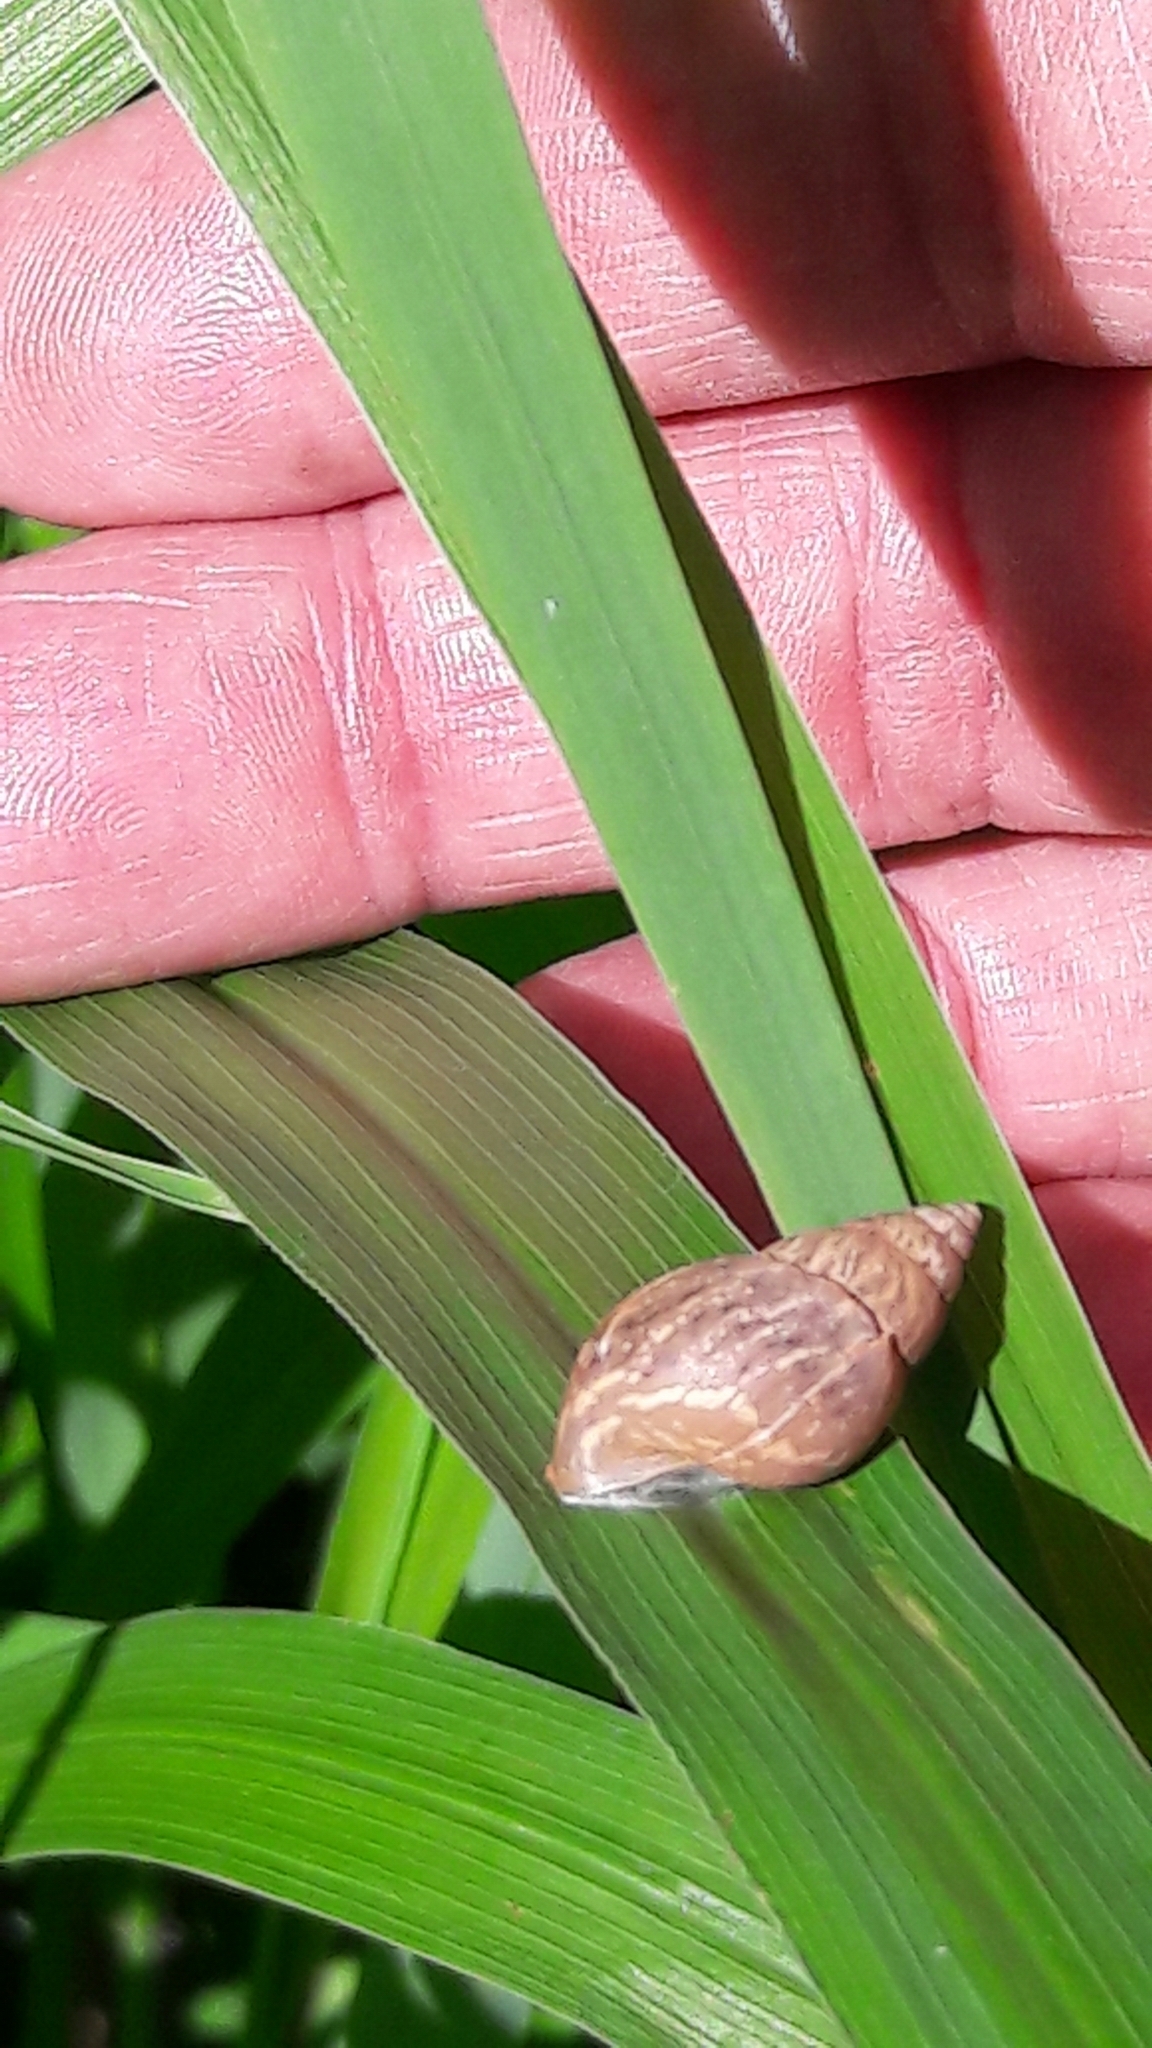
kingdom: Animalia
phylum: Mollusca
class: Gastropoda
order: Stylommatophora
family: Bulimulidae
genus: Bulimulus
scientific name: Bulimulus tenuissimus
